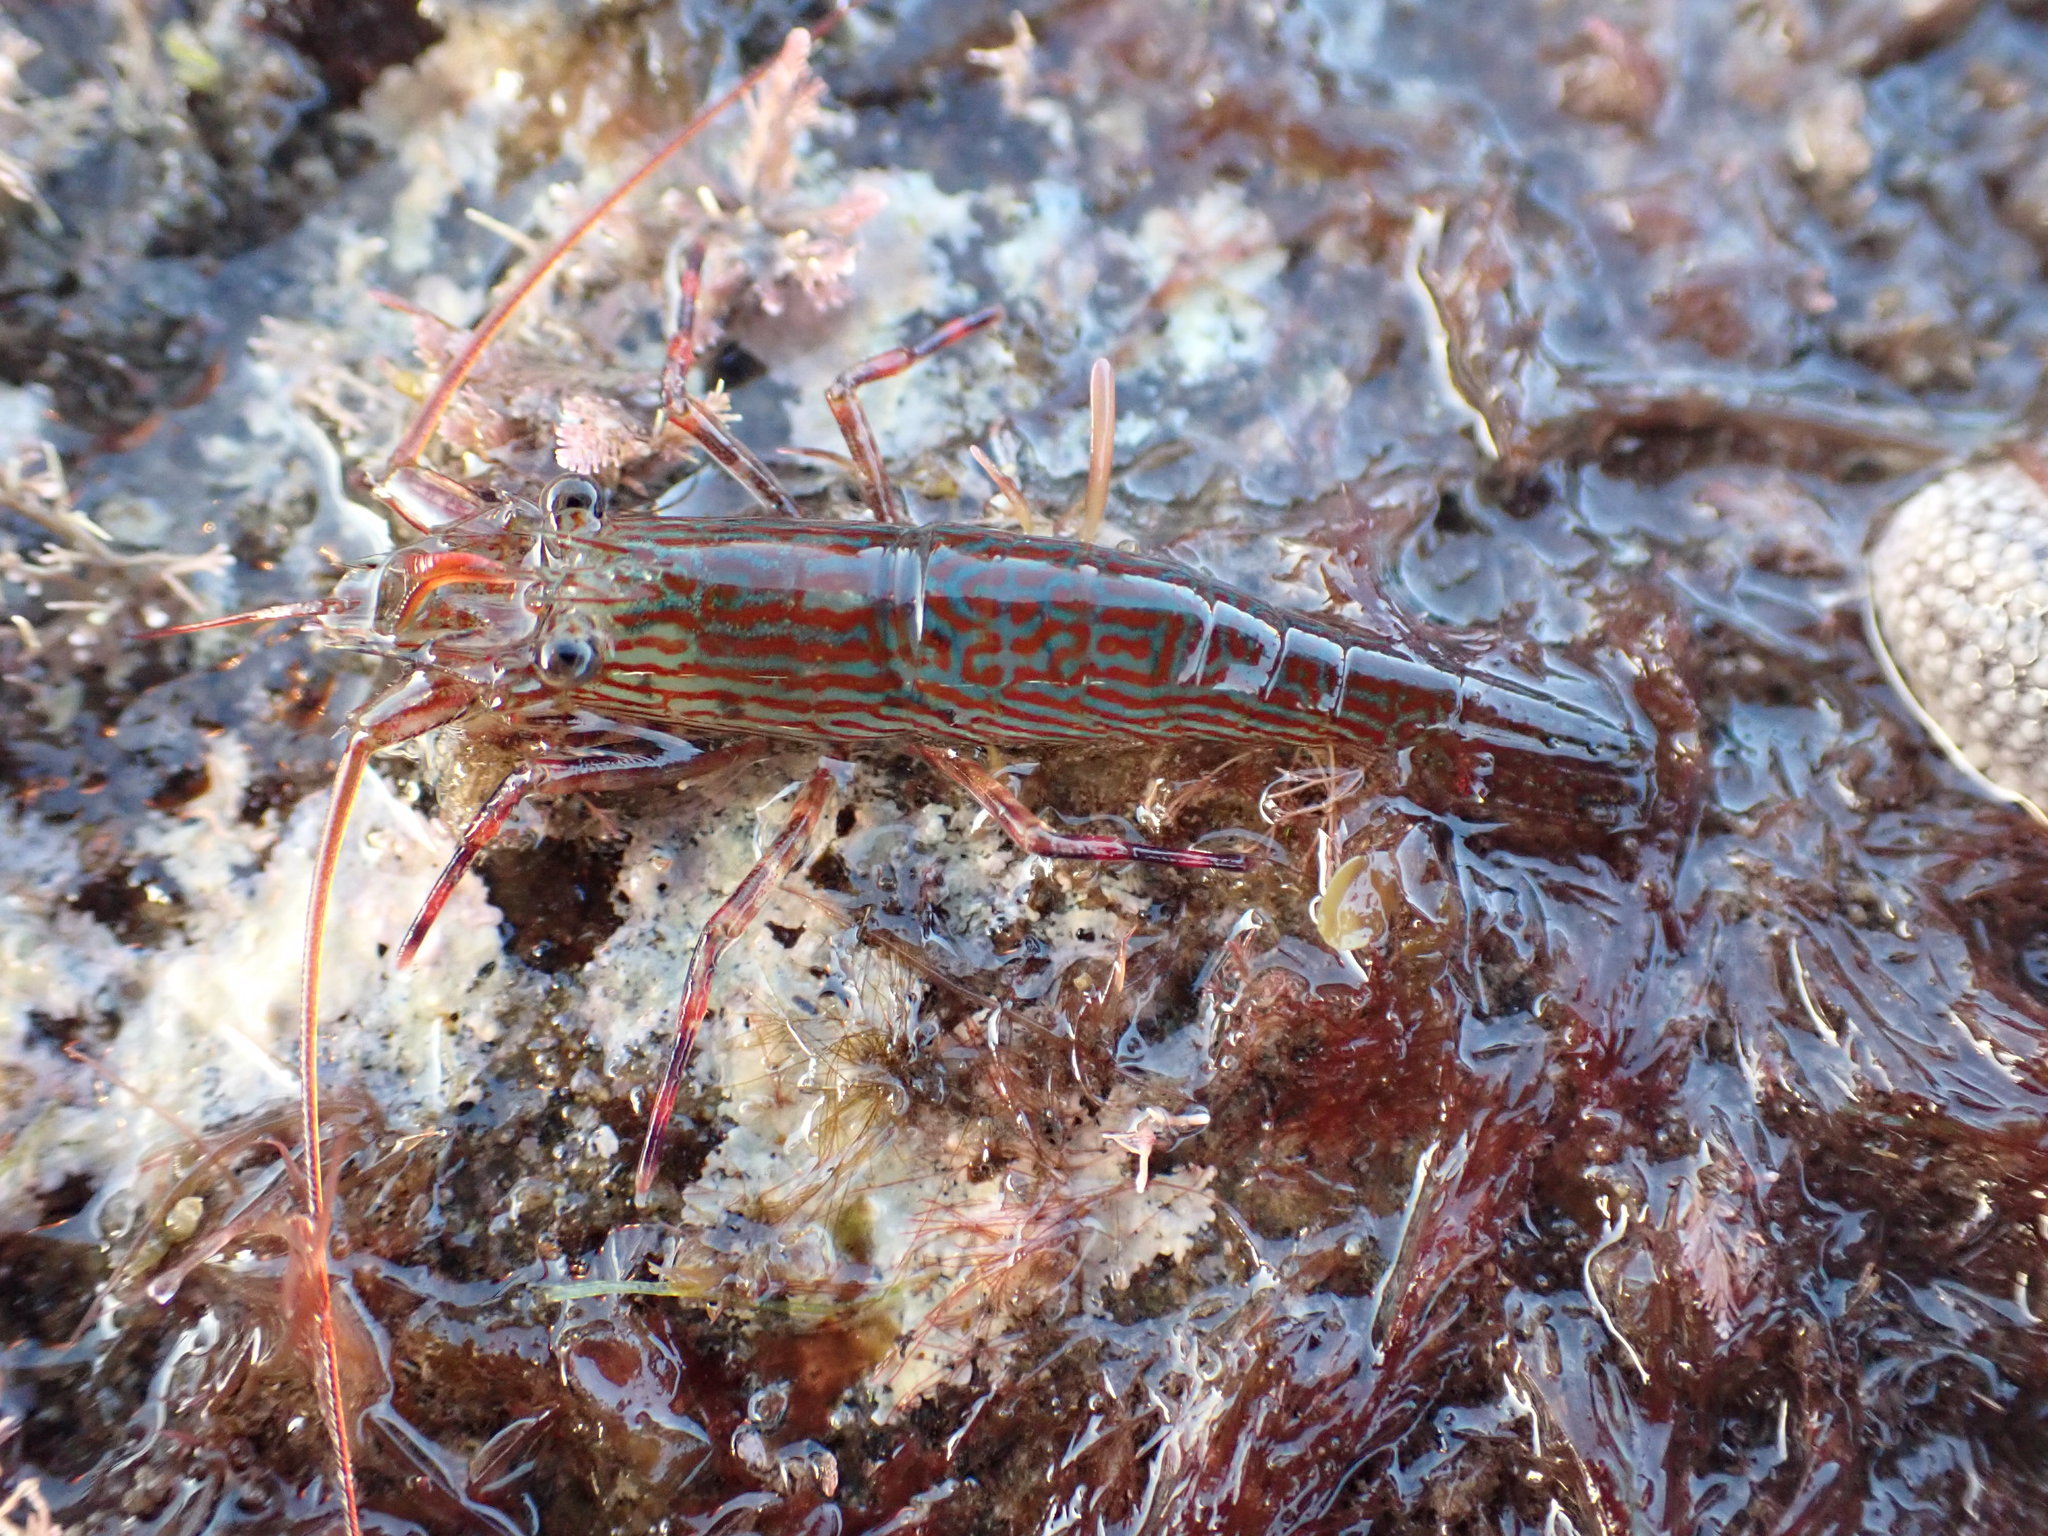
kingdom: Animalia
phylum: Arthropoda
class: Malacostraca
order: Decapoda
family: Hippolytidae
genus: Alope
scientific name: Alope spinifrons
